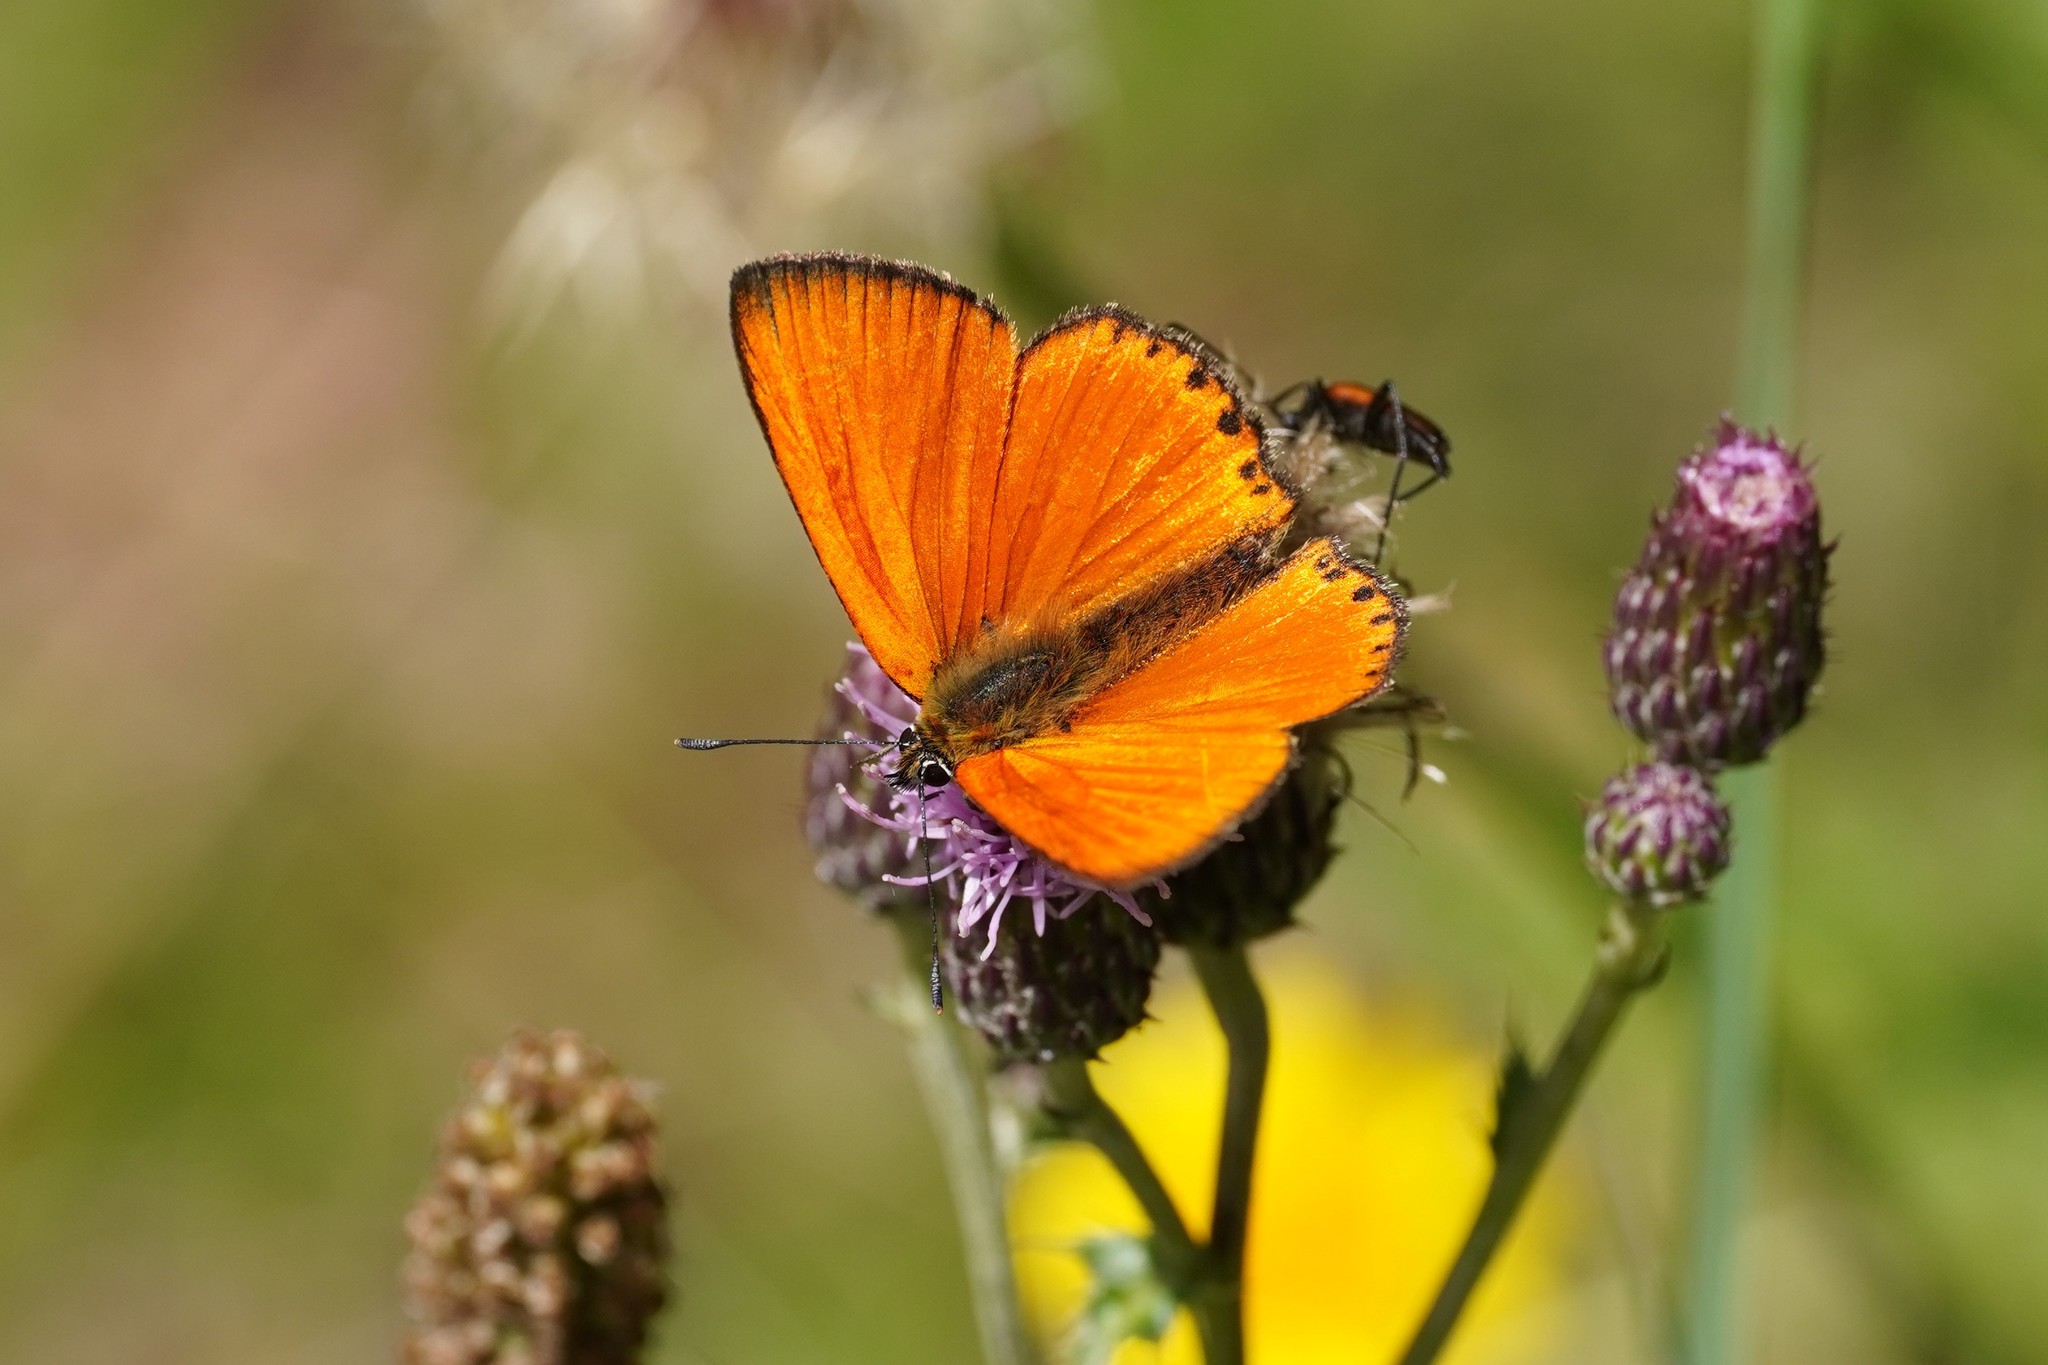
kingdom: Animalia
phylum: Arthropoda
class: Insecta
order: Lepidoptera
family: Lycaenidae
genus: Lycaena
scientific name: Lycaena virgaureae
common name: Scarce copper
